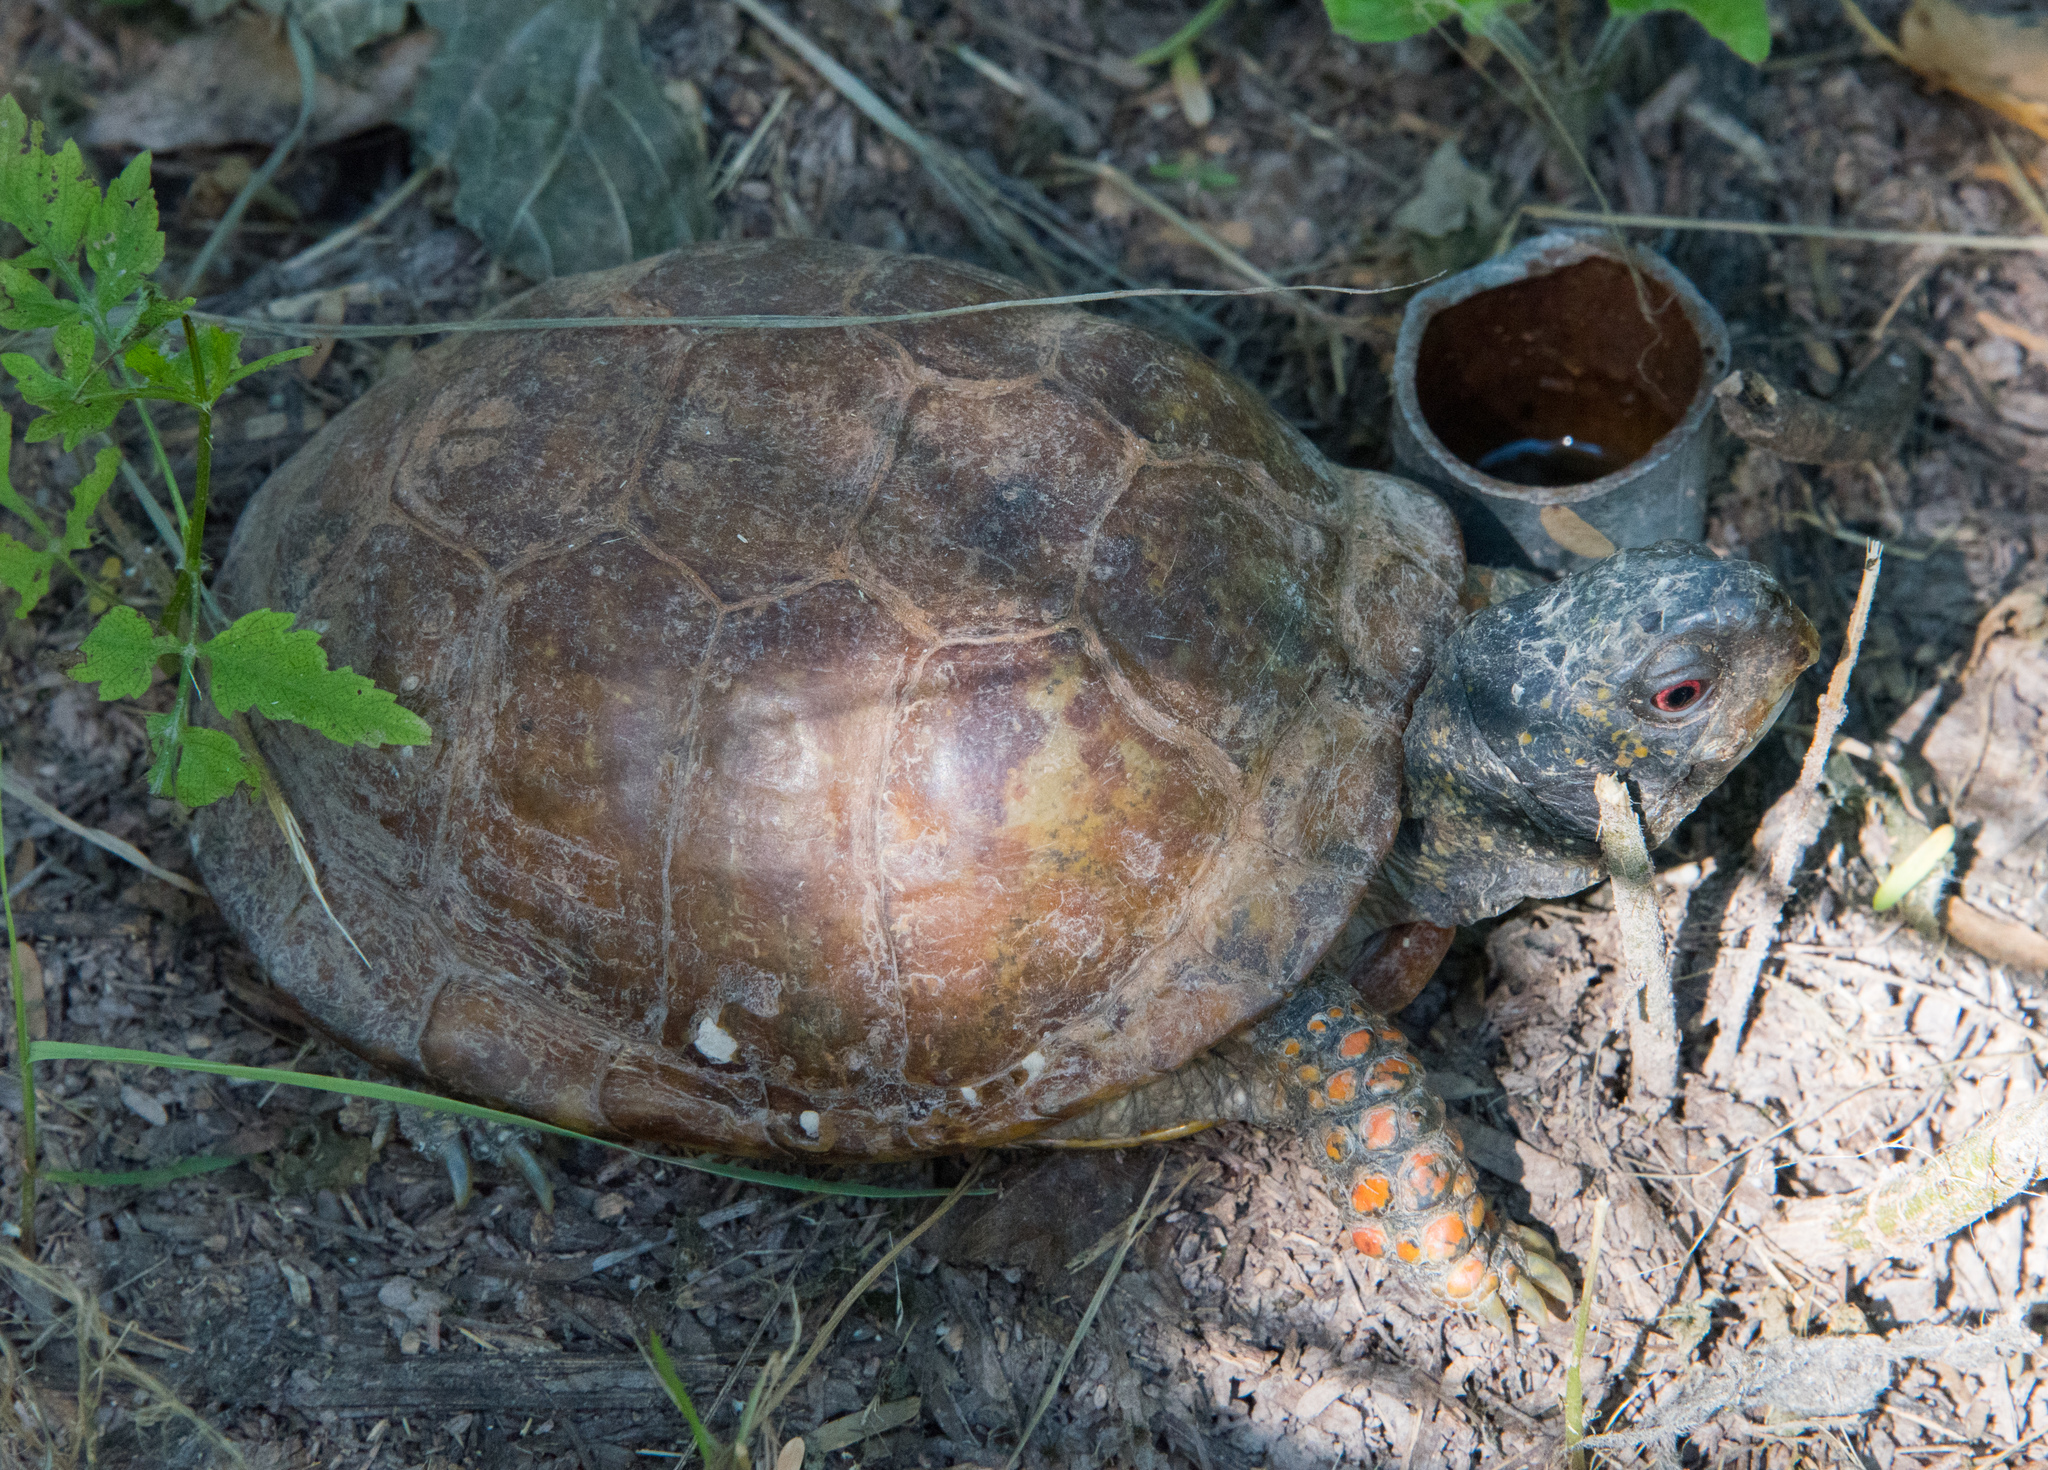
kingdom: Animalia
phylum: Chordata
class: Testudines
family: Emydidae
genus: Terrapene
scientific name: Terrapene ornata
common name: Western box turtle
